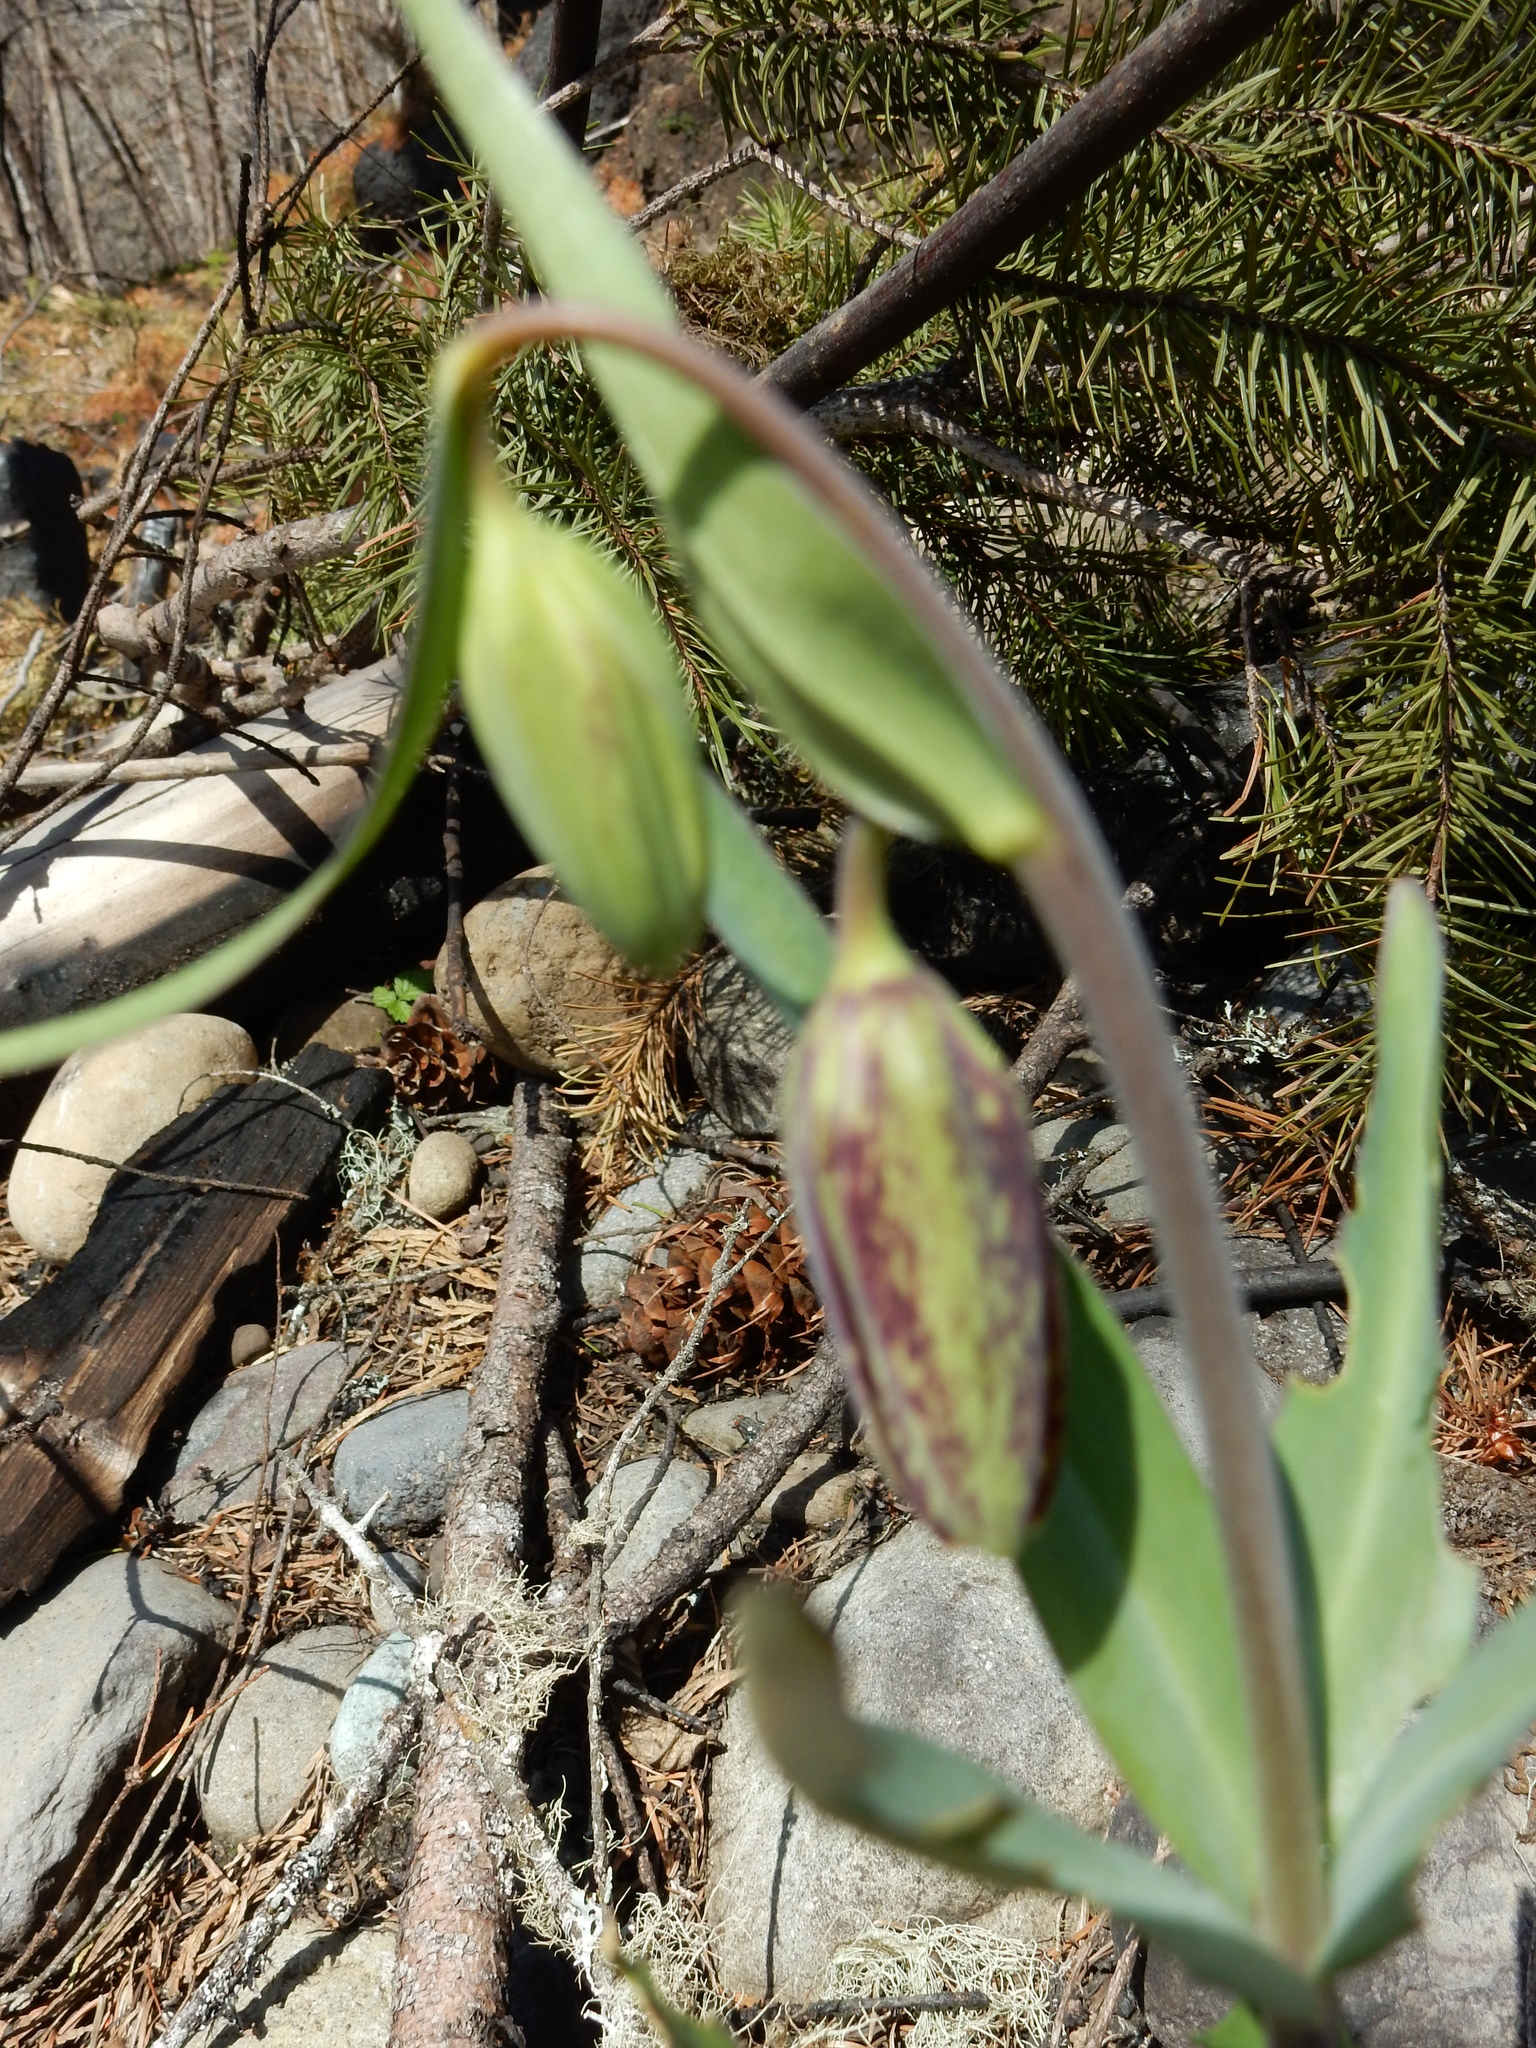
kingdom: Plantae
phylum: Tracheophyta
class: Liliopsida
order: Liliales
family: Liliaceae
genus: Fritillaria
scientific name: Fritillaria affinis
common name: Ojai fritillary
